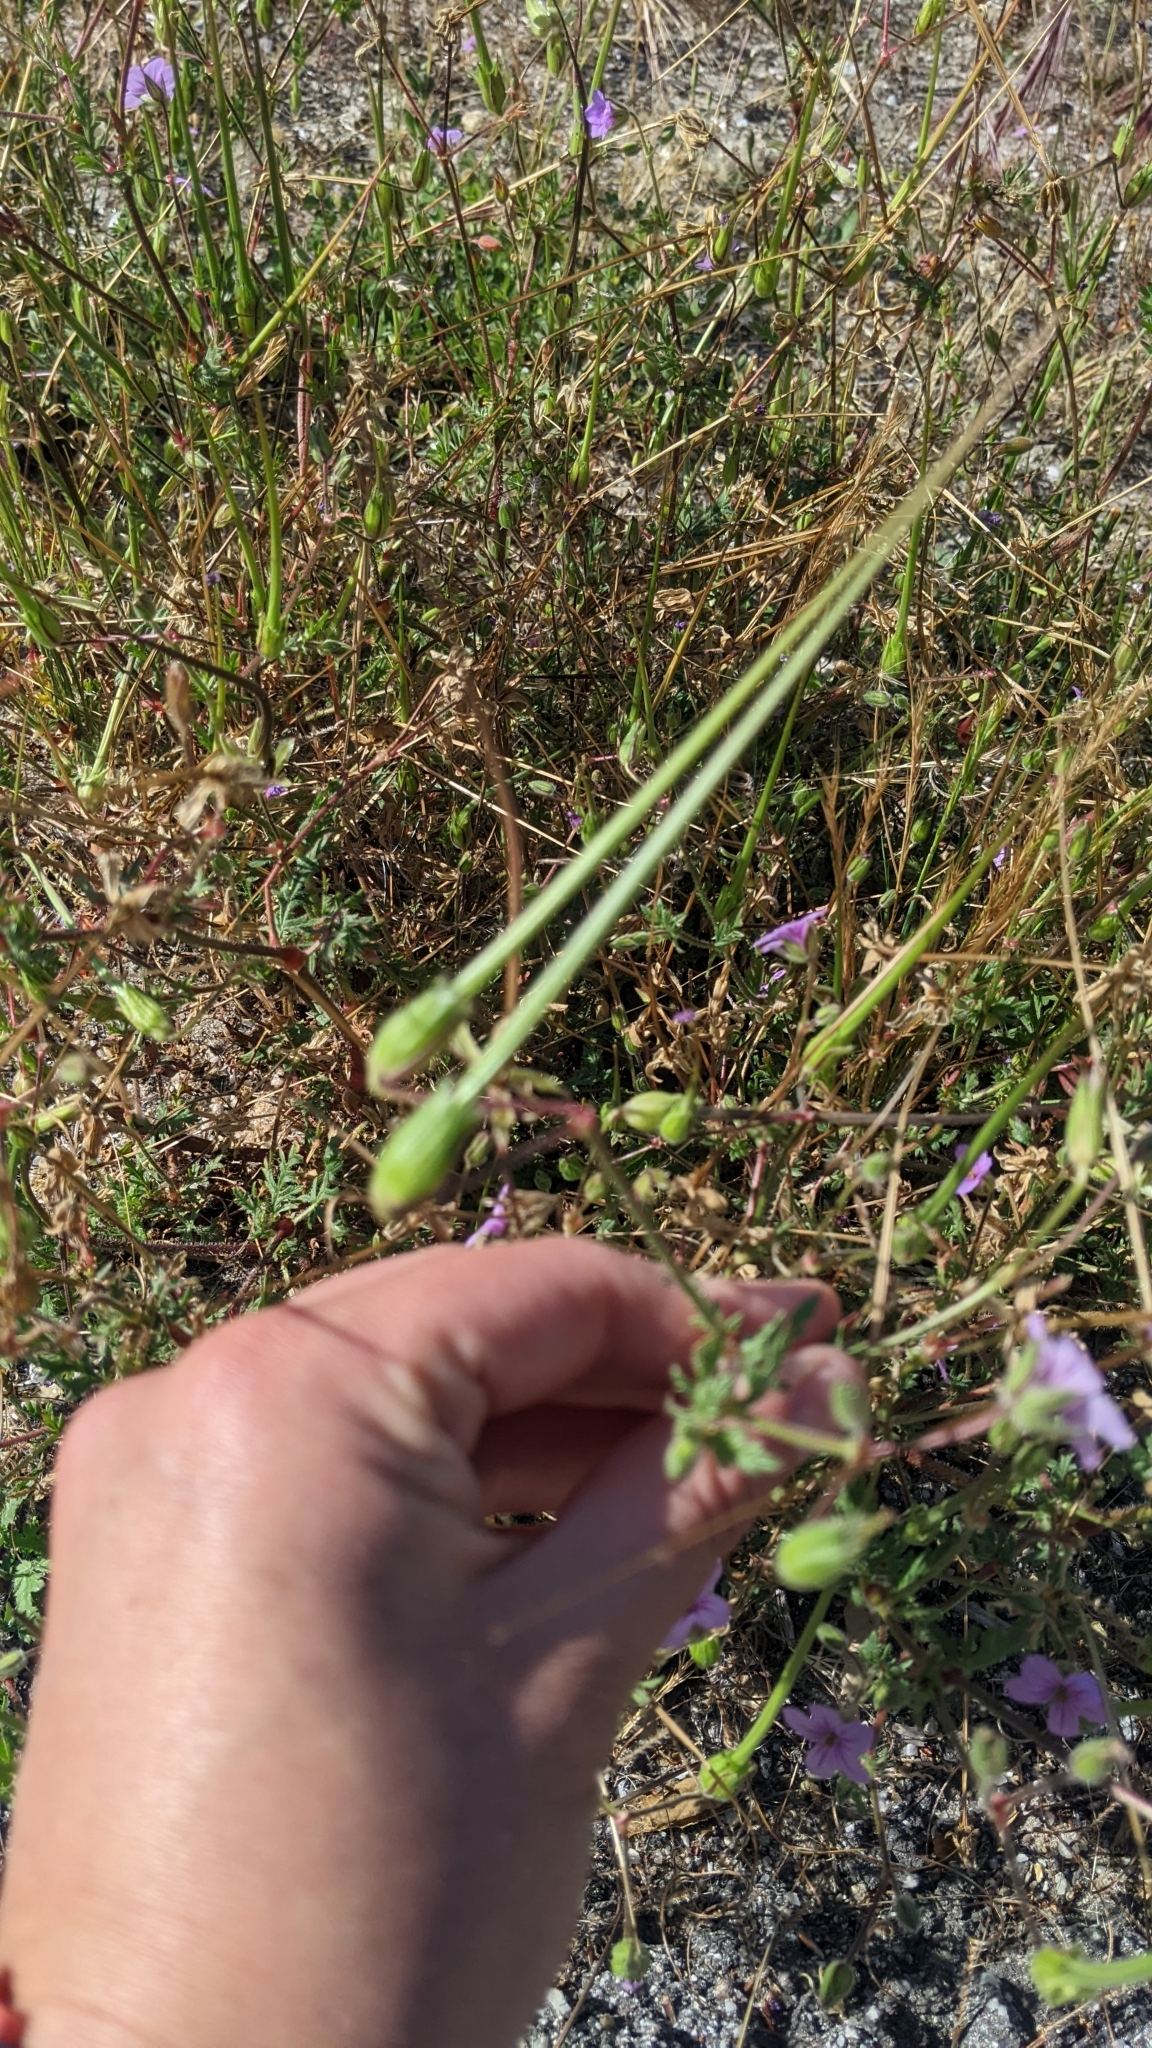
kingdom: Plantae
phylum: Tracheophyta
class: Magnoliopsida
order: Geraniales
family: Geraniaceae
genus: Erodium
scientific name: Erodium botrys
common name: Mediterranean stork's-bill
